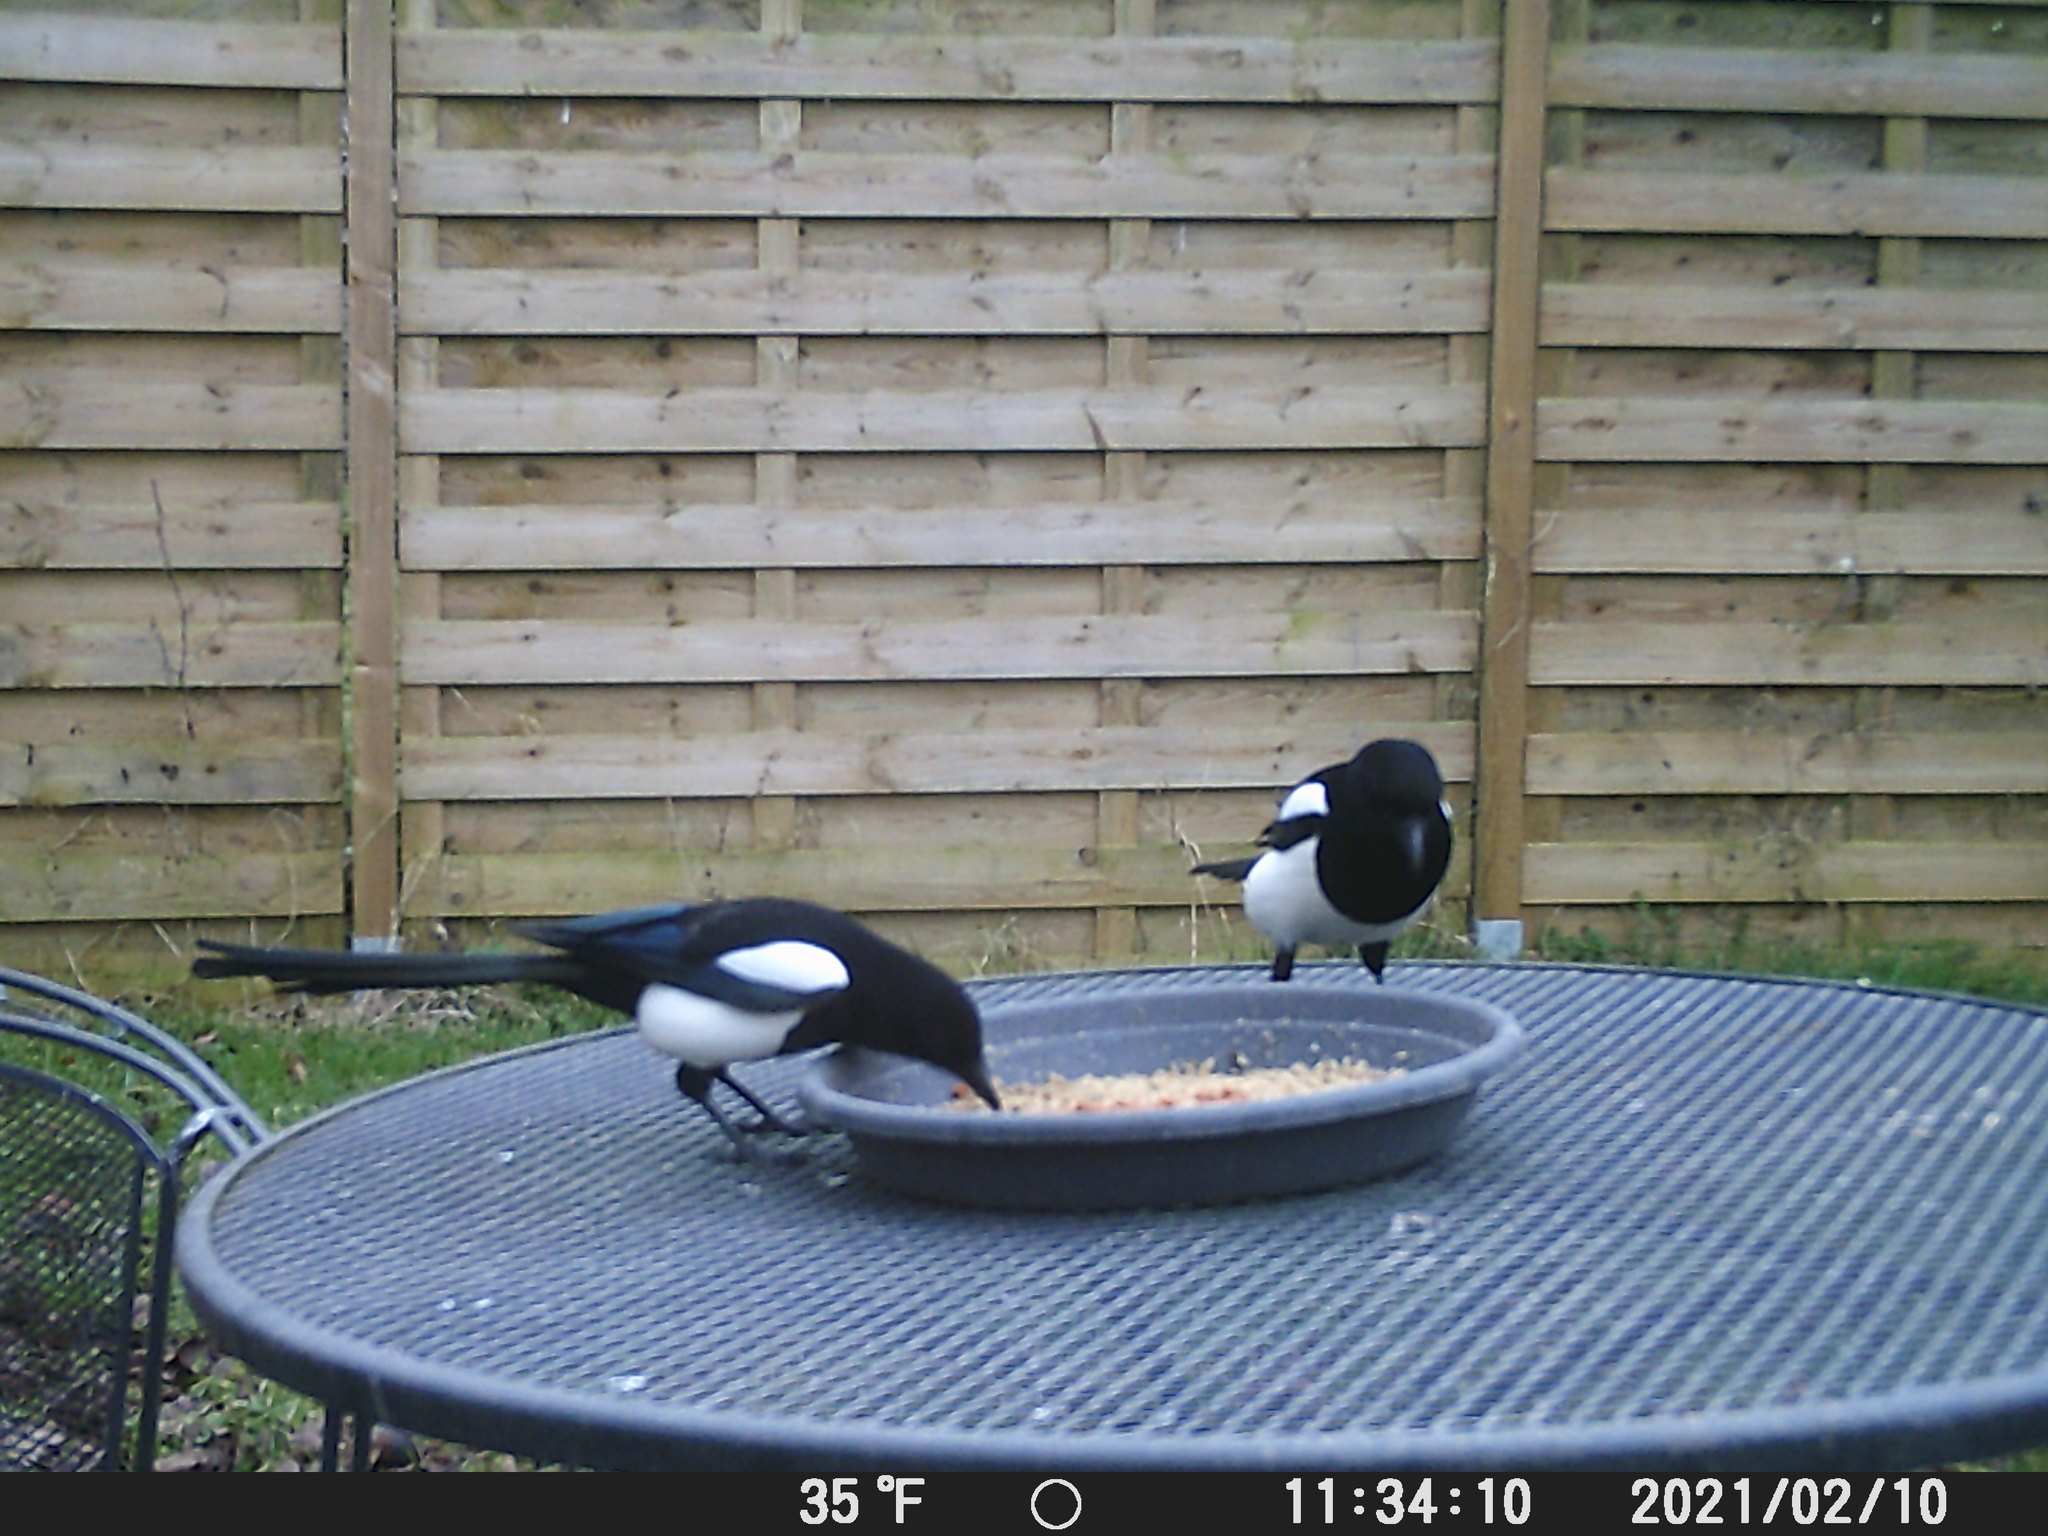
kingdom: Animalia
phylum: Chordata
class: Aves
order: Passeriformes
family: Corvidae
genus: Pica
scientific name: Pica pica
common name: Eurasian magpie
